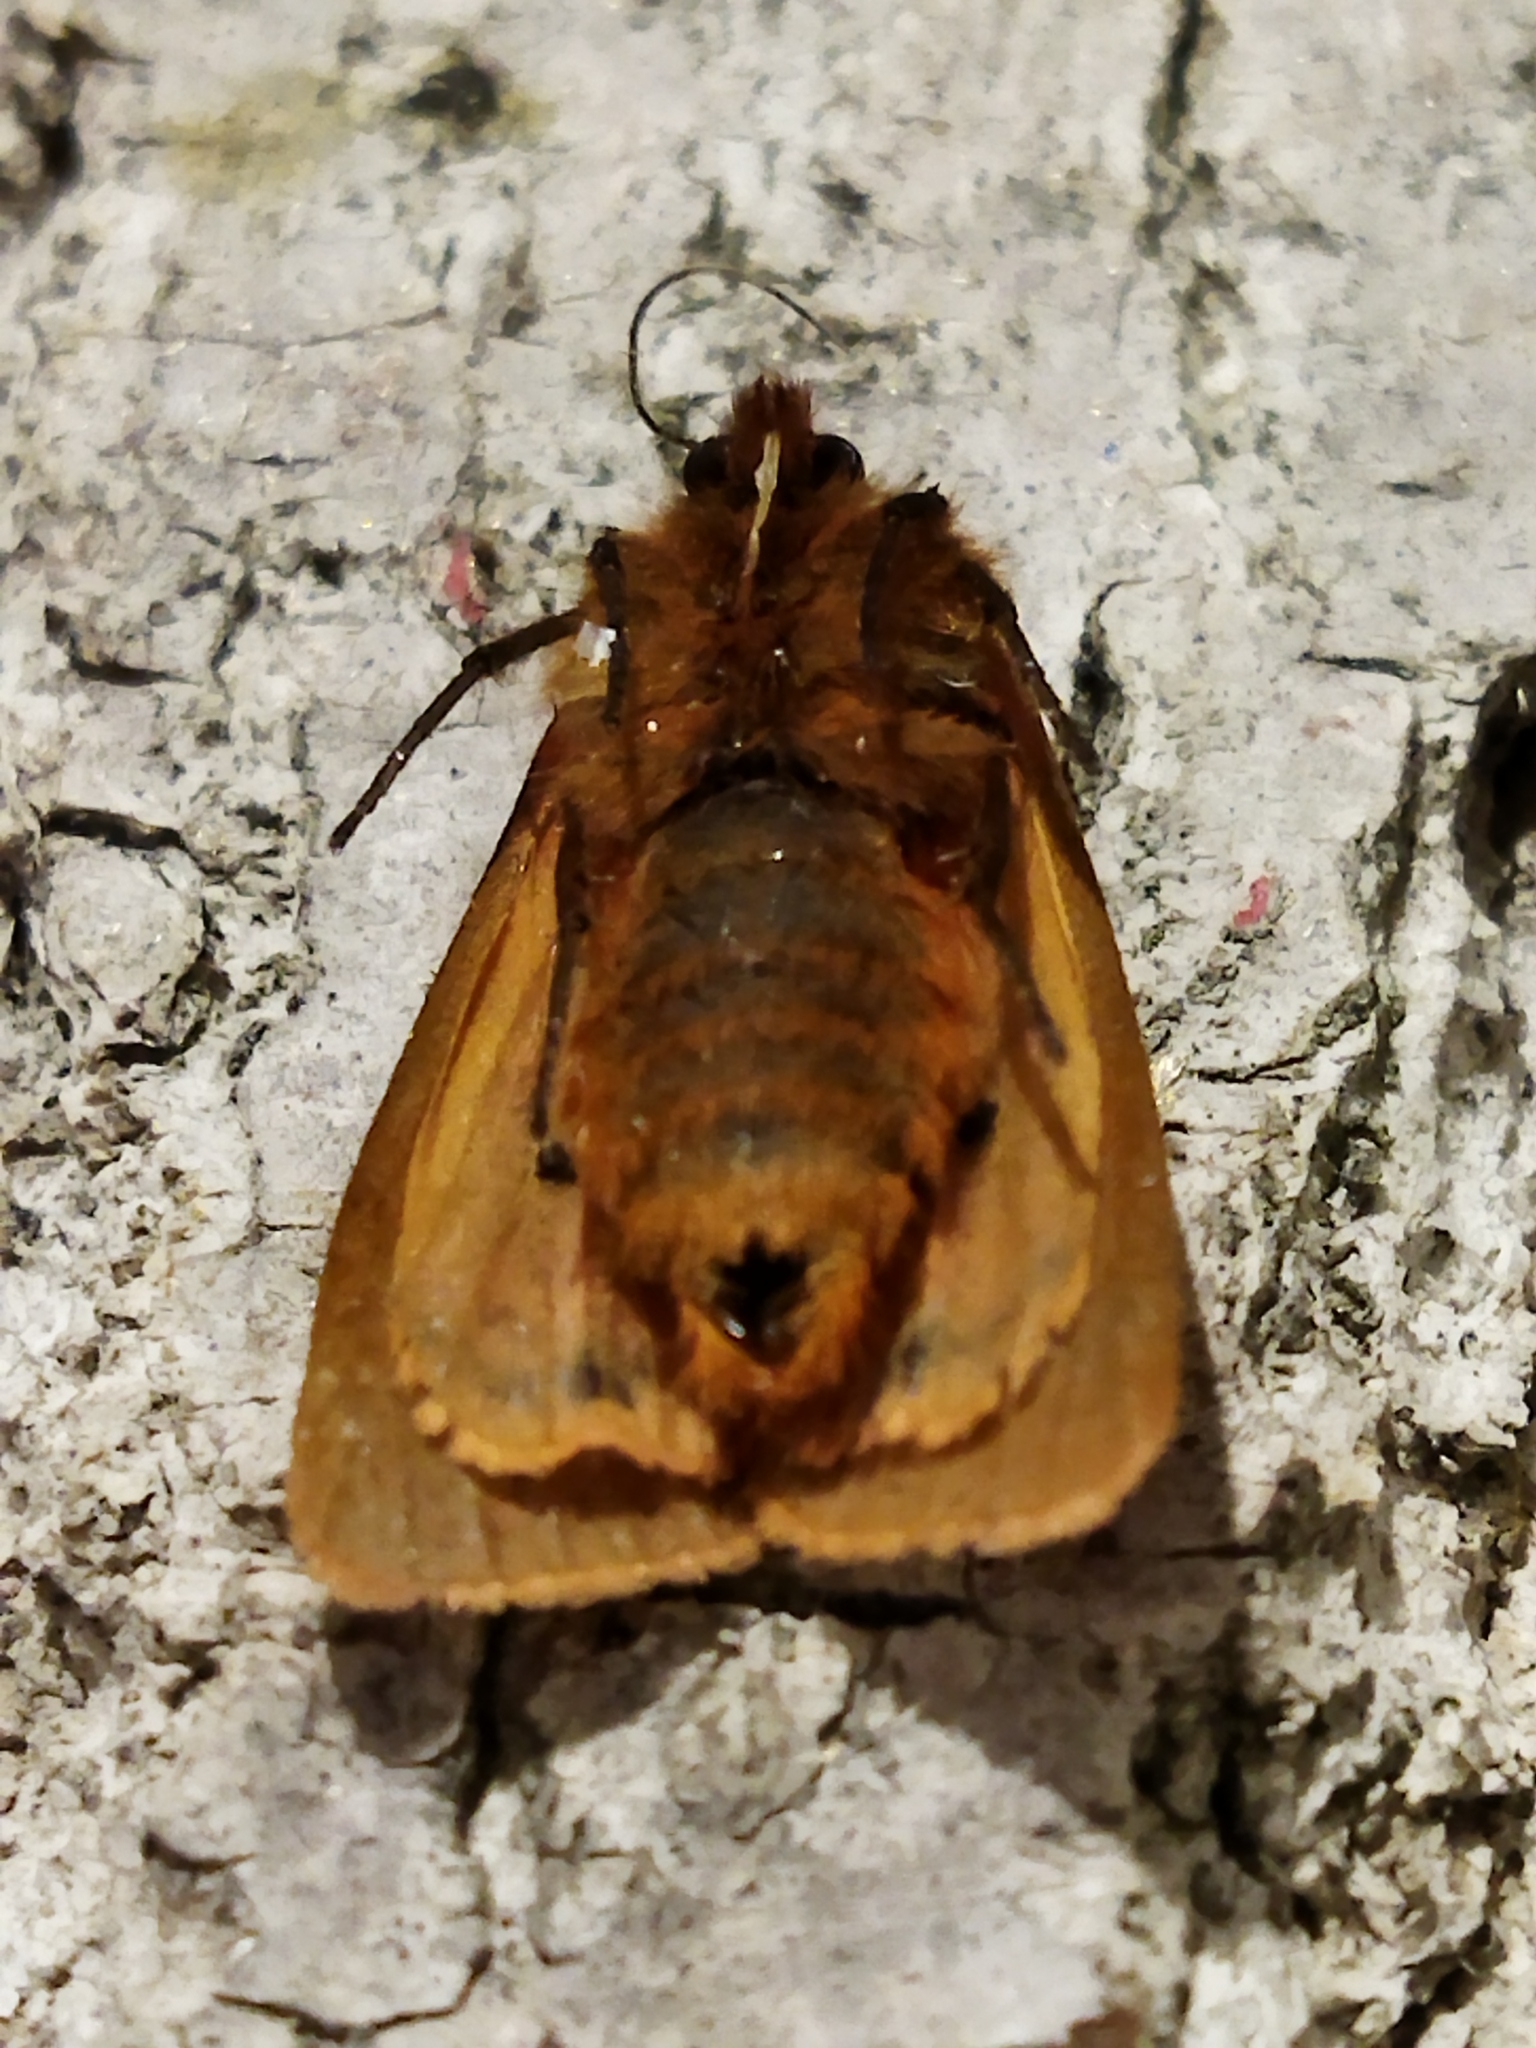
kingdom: Animalia
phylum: Arthropoda
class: Insecta
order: Lepidoptera
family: Erebidae
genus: Phragmatobia
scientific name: Phragmatobia fuliginosa
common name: Ruby tiger
